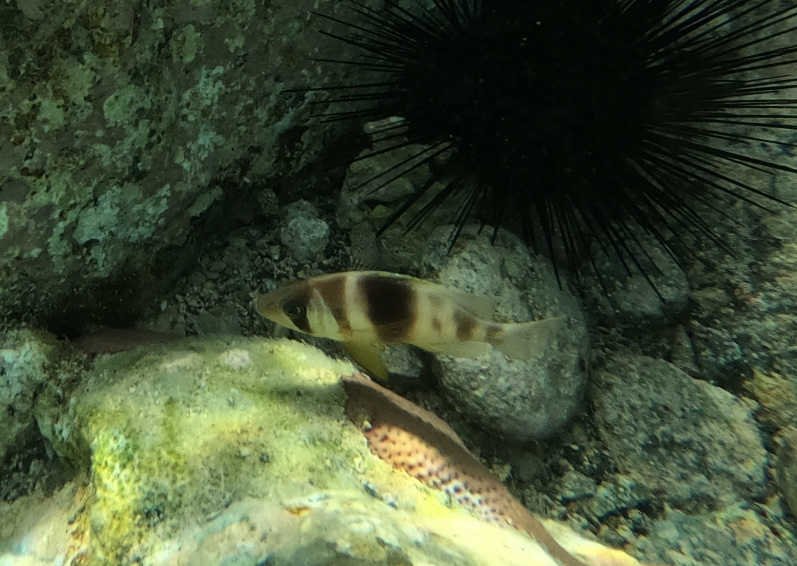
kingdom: Animalia
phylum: Chordata
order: Perciformes
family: Serranidae
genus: Hypoplectrus
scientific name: Hypoplectrus puella
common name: Barred hamlet
